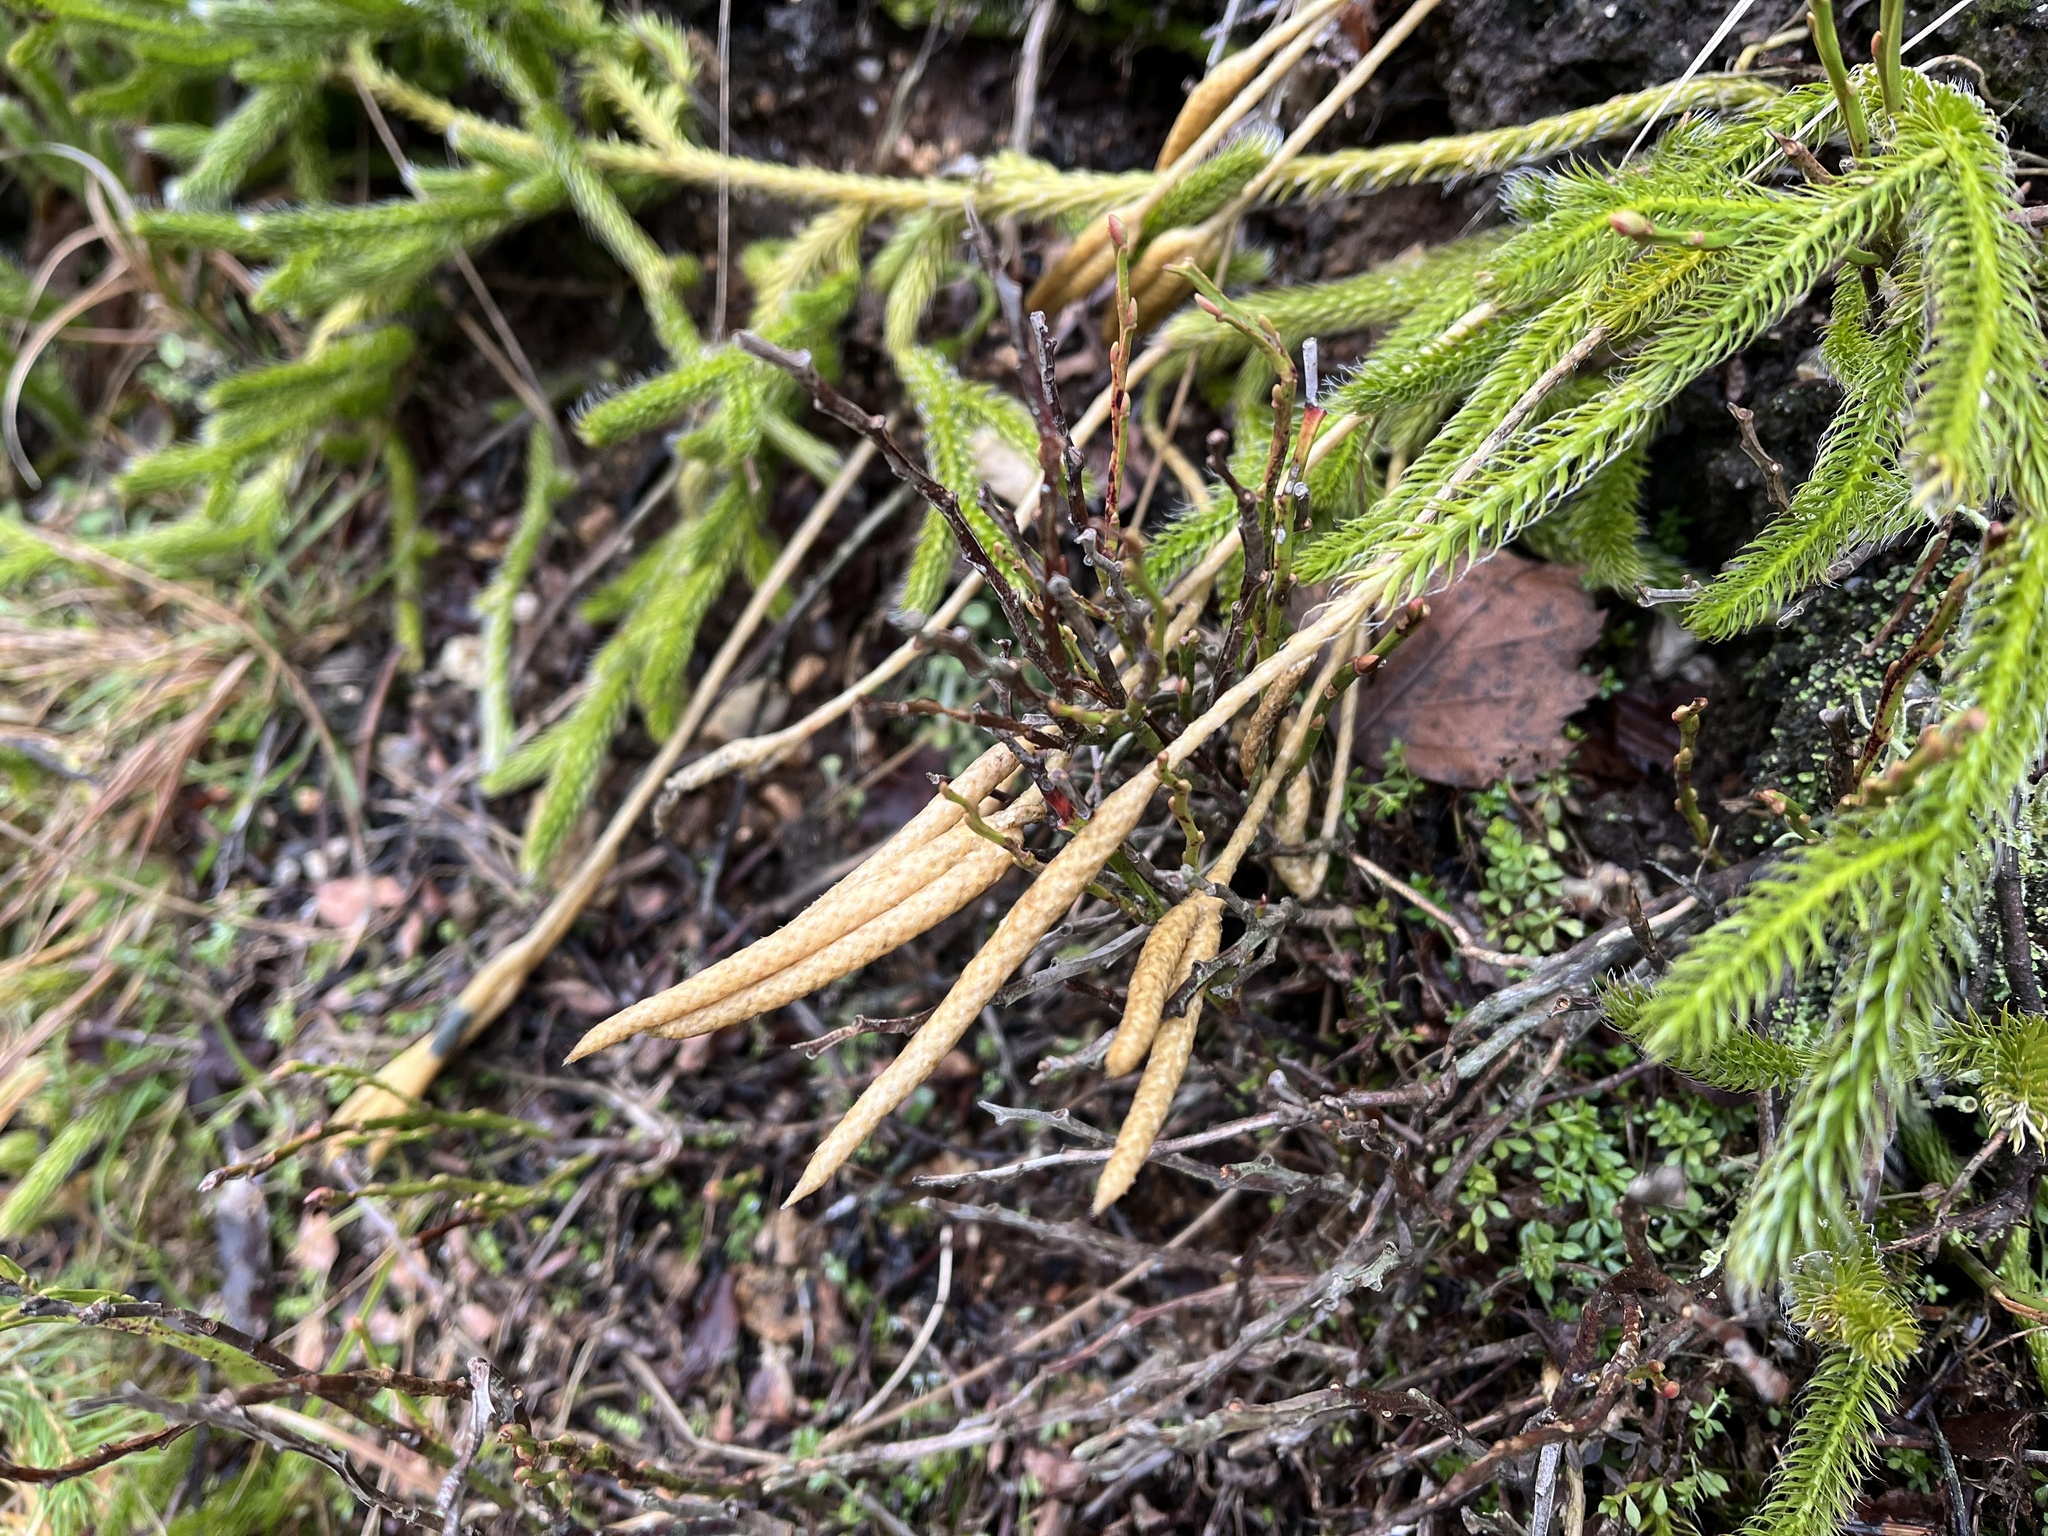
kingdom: Plantae
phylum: Tracheophyta
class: Lycopodiopsida
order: Lycopodiales
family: Lycopodiaceae
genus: Lycopodium
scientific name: Lycopodium clavatum
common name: Stag's-horn clubmoss
